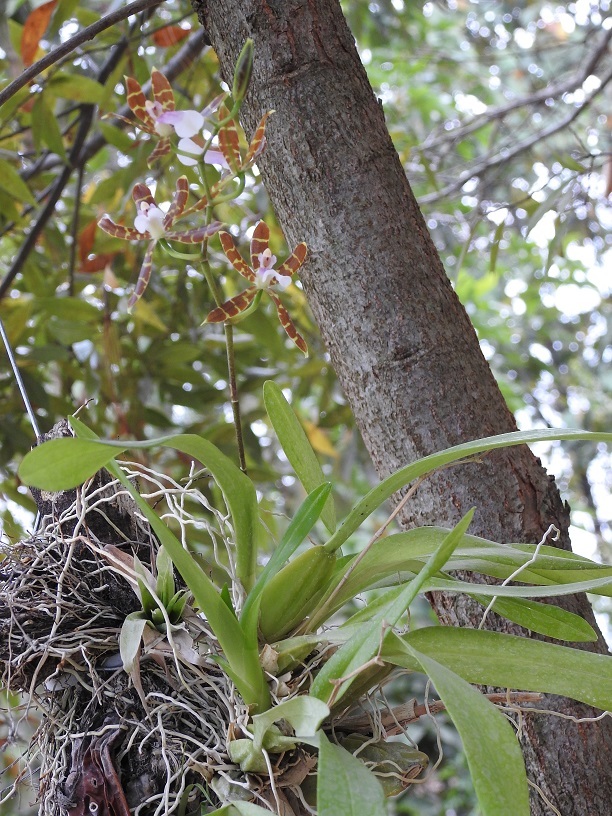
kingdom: Plantae
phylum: Tracheophyta
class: Liliopsida
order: Asparagales
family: Orchidaceae
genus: Oncidium
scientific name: Oncidium laeve
